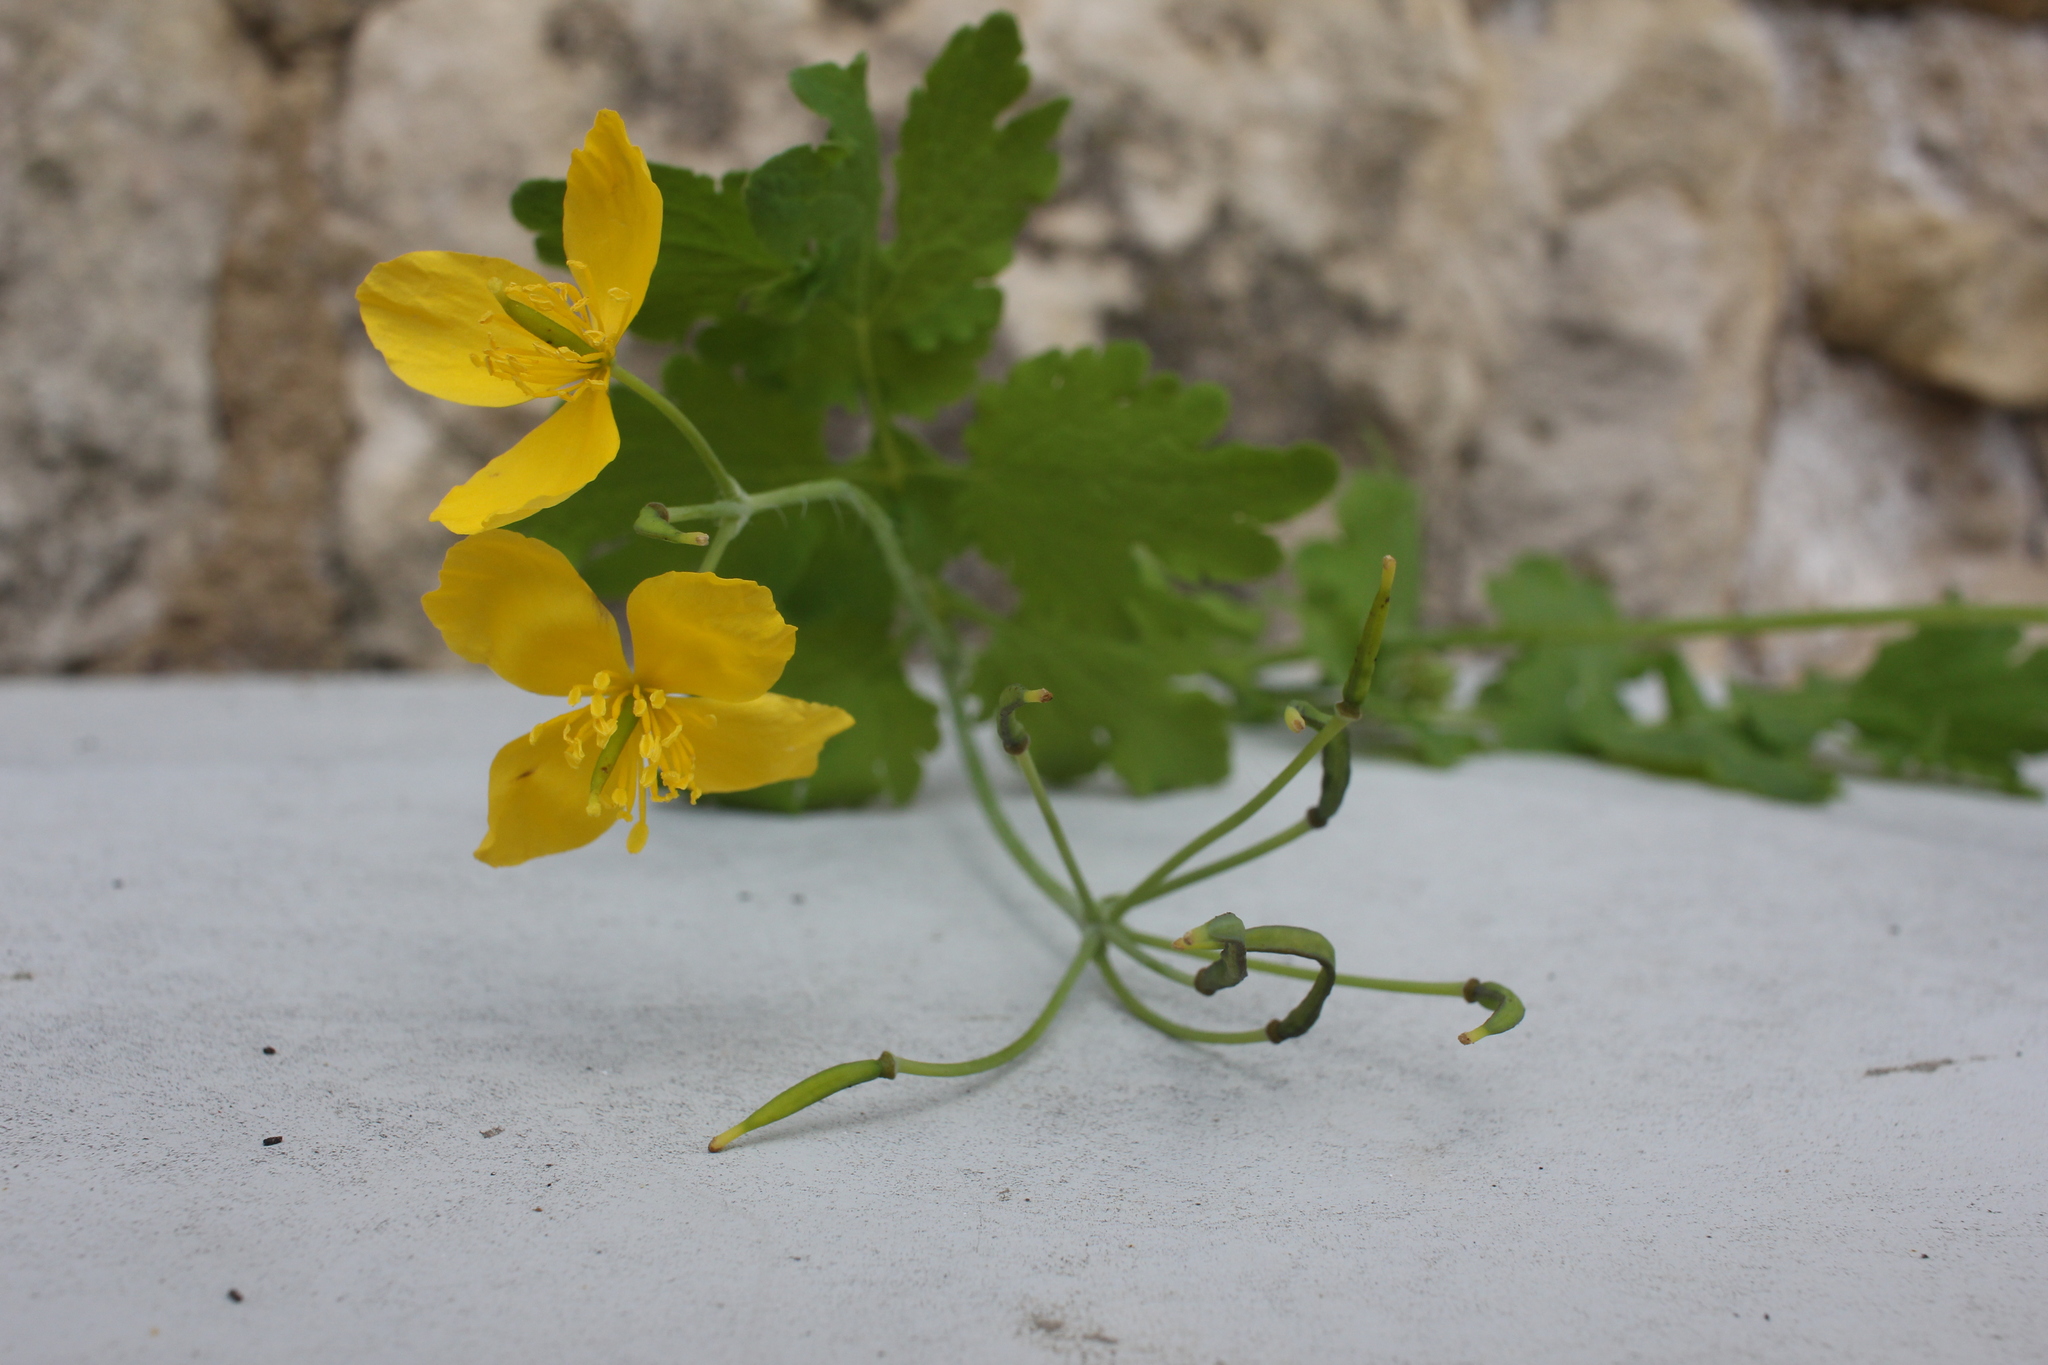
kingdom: Plantae
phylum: Tracheophyta
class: Magnoliopsida
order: Ranunculales
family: Papaveraceae
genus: Chelidonium
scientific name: Chelidonium majus
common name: Greater celandine
